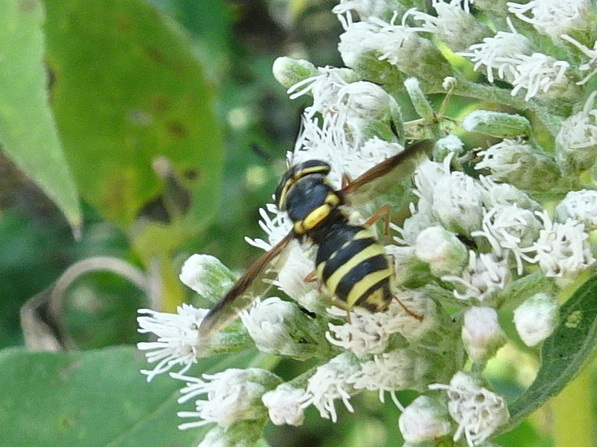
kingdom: Animalia
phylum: Arthropoda
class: Insecta
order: Diptera
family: Stratiomyidae
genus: Hoplitimyia
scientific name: Hoplitimyia constans
